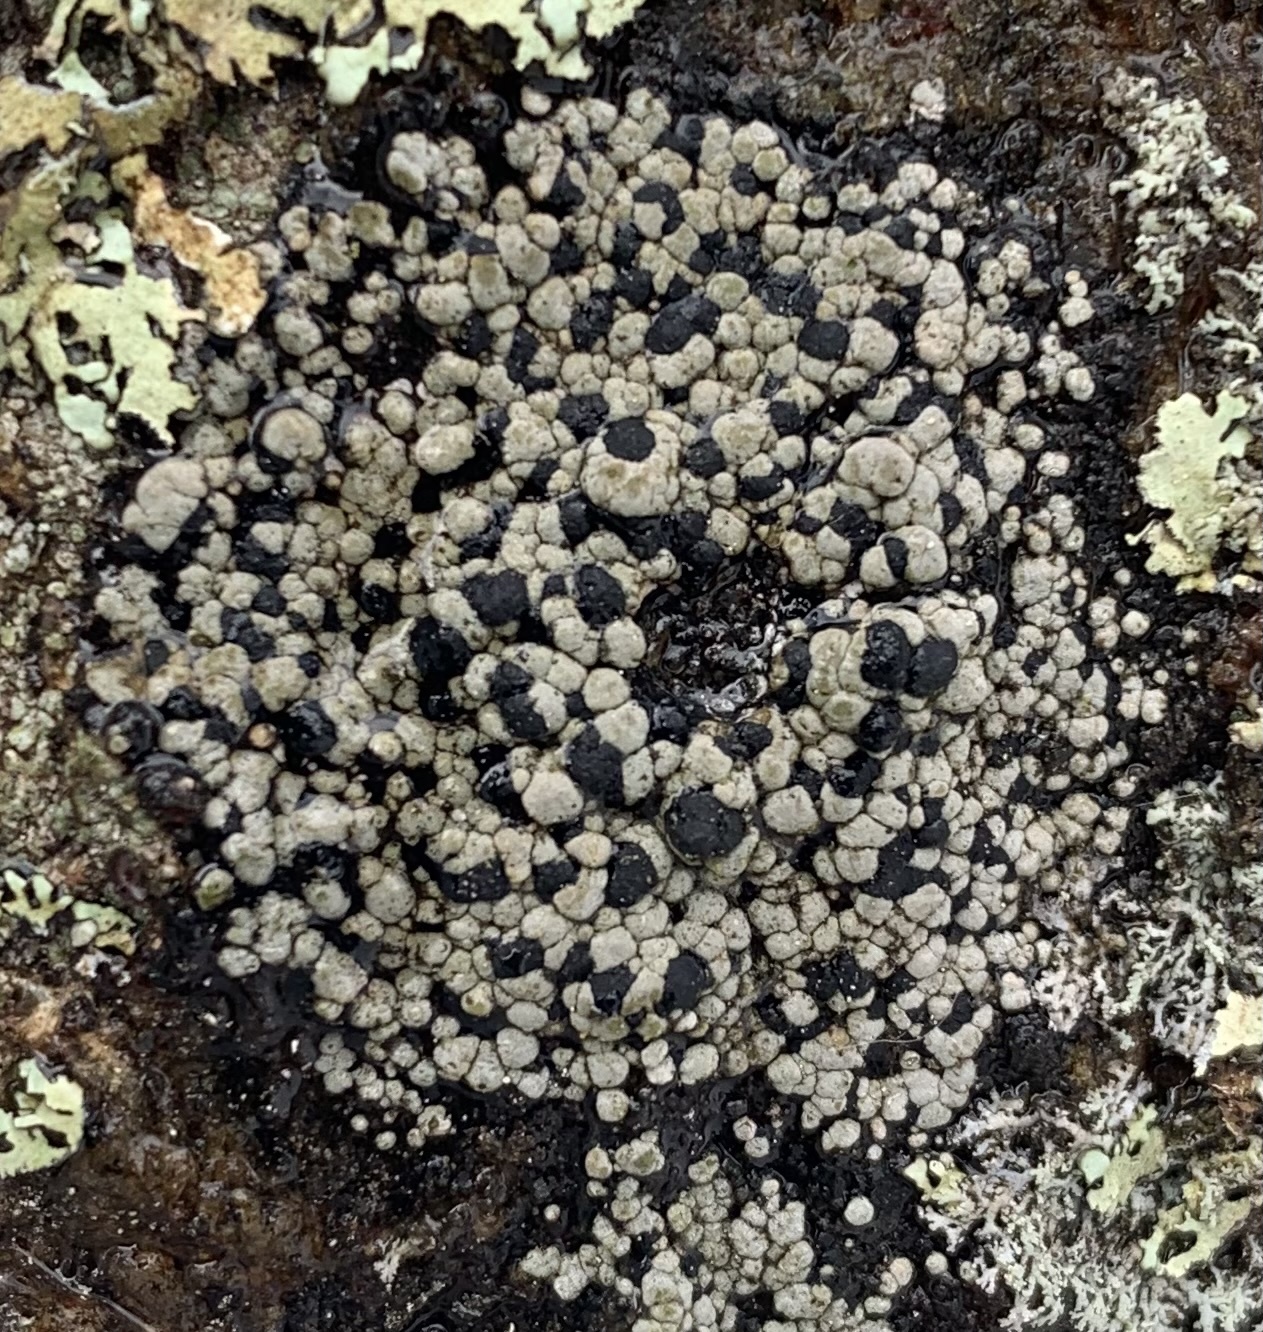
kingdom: Fungi
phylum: Ascomycota
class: Lecanoromycetes
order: Rhizocarpales
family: Rhizocarpaceae
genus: Rhizocarpon
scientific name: Rhizocarpon grande
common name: Big map lichen
